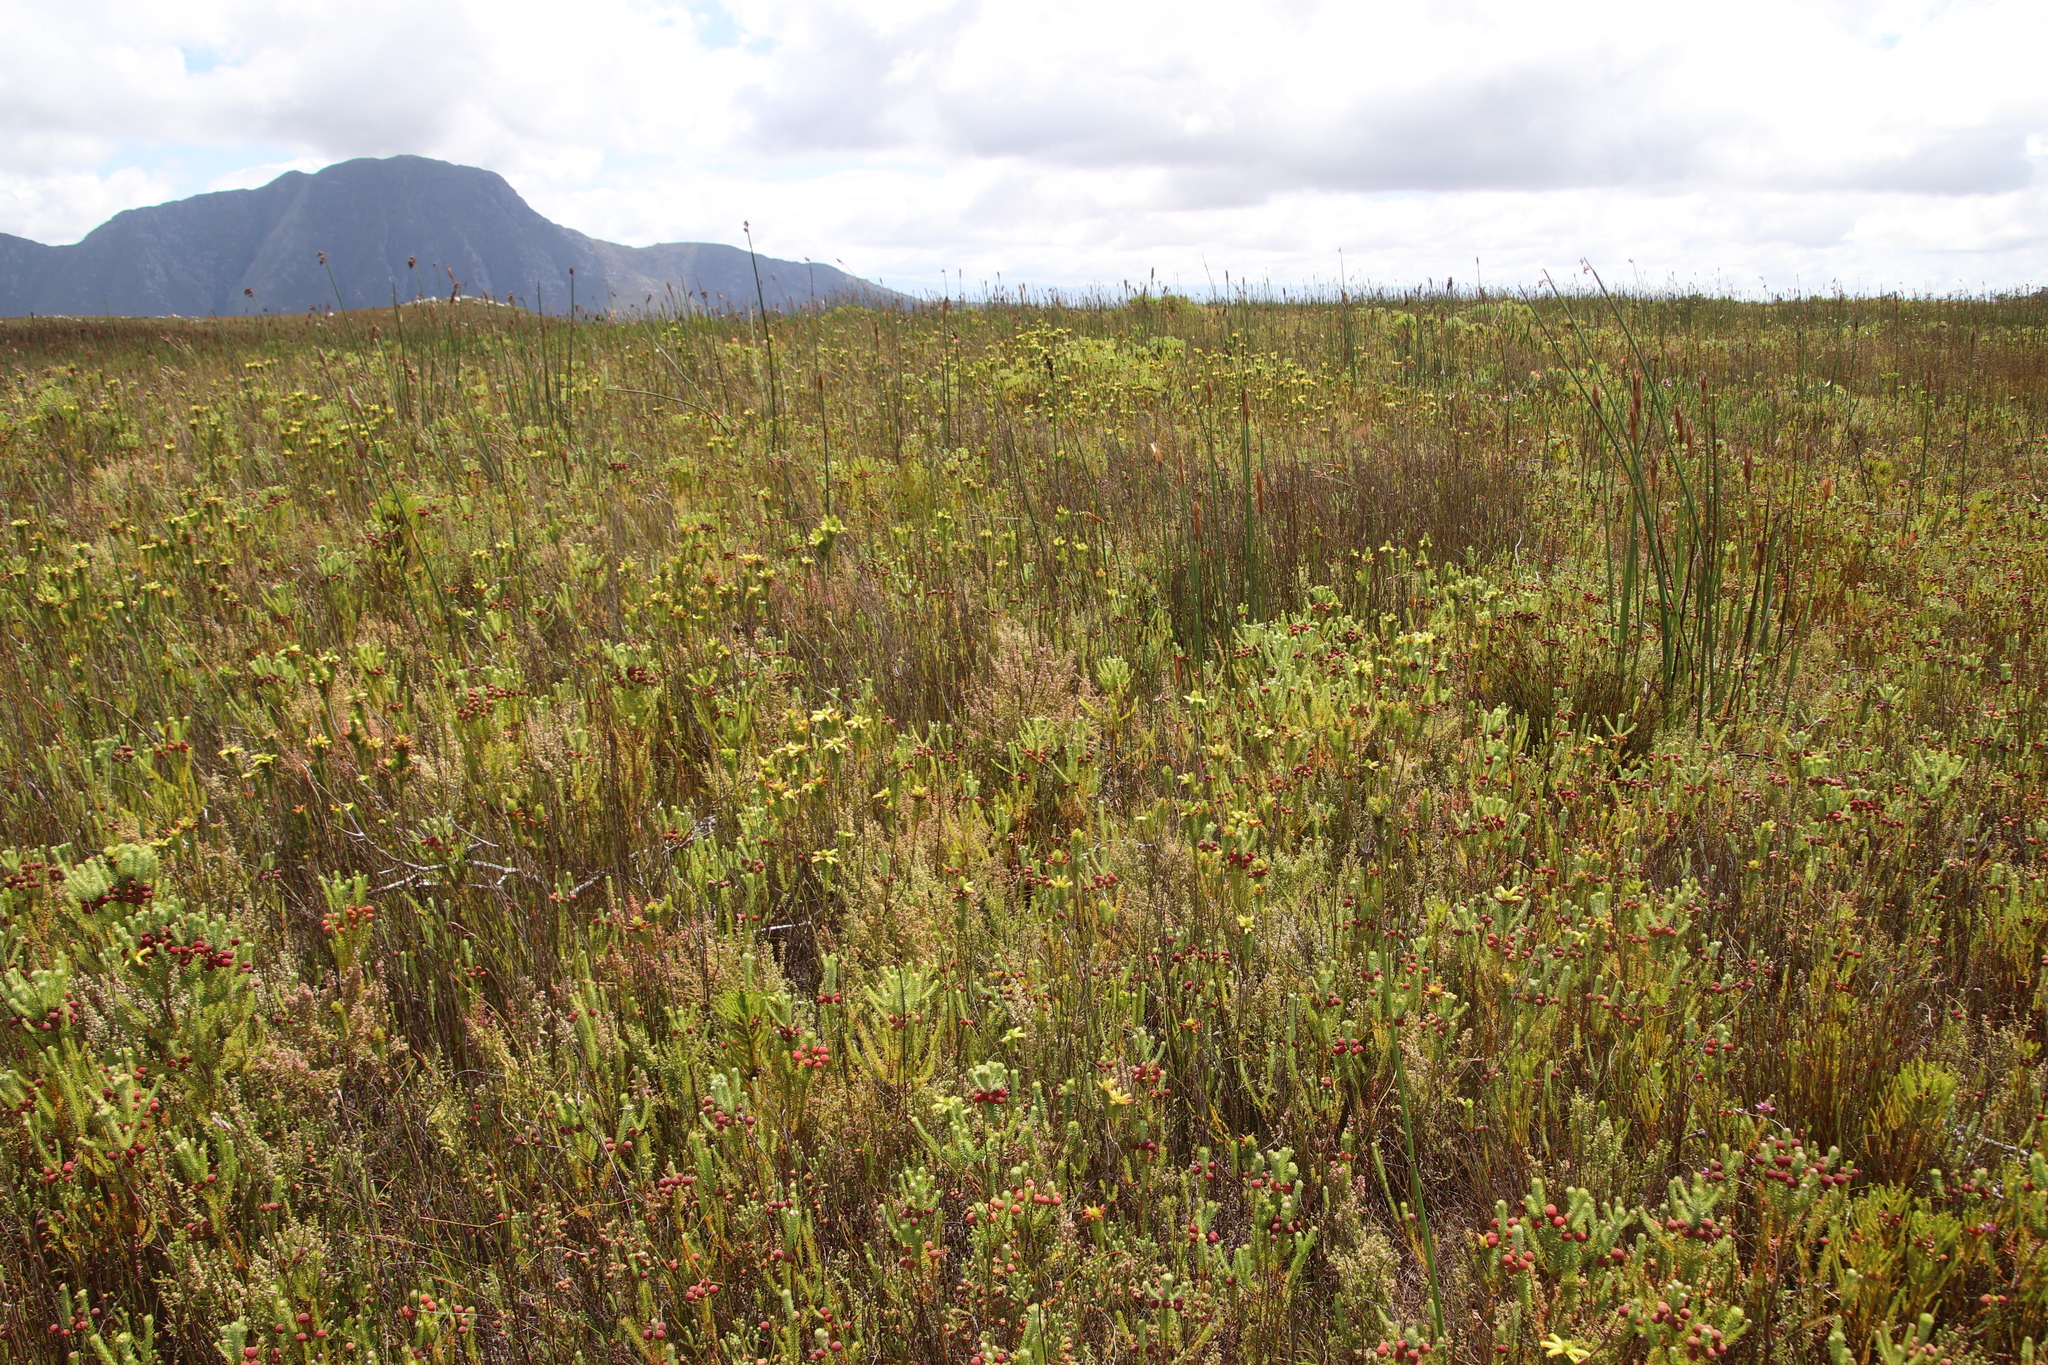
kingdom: Plantae
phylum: Tracheophyta
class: Magnoliopsida
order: Ericales
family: Ericaceae
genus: Erica
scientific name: Erica viscaria
